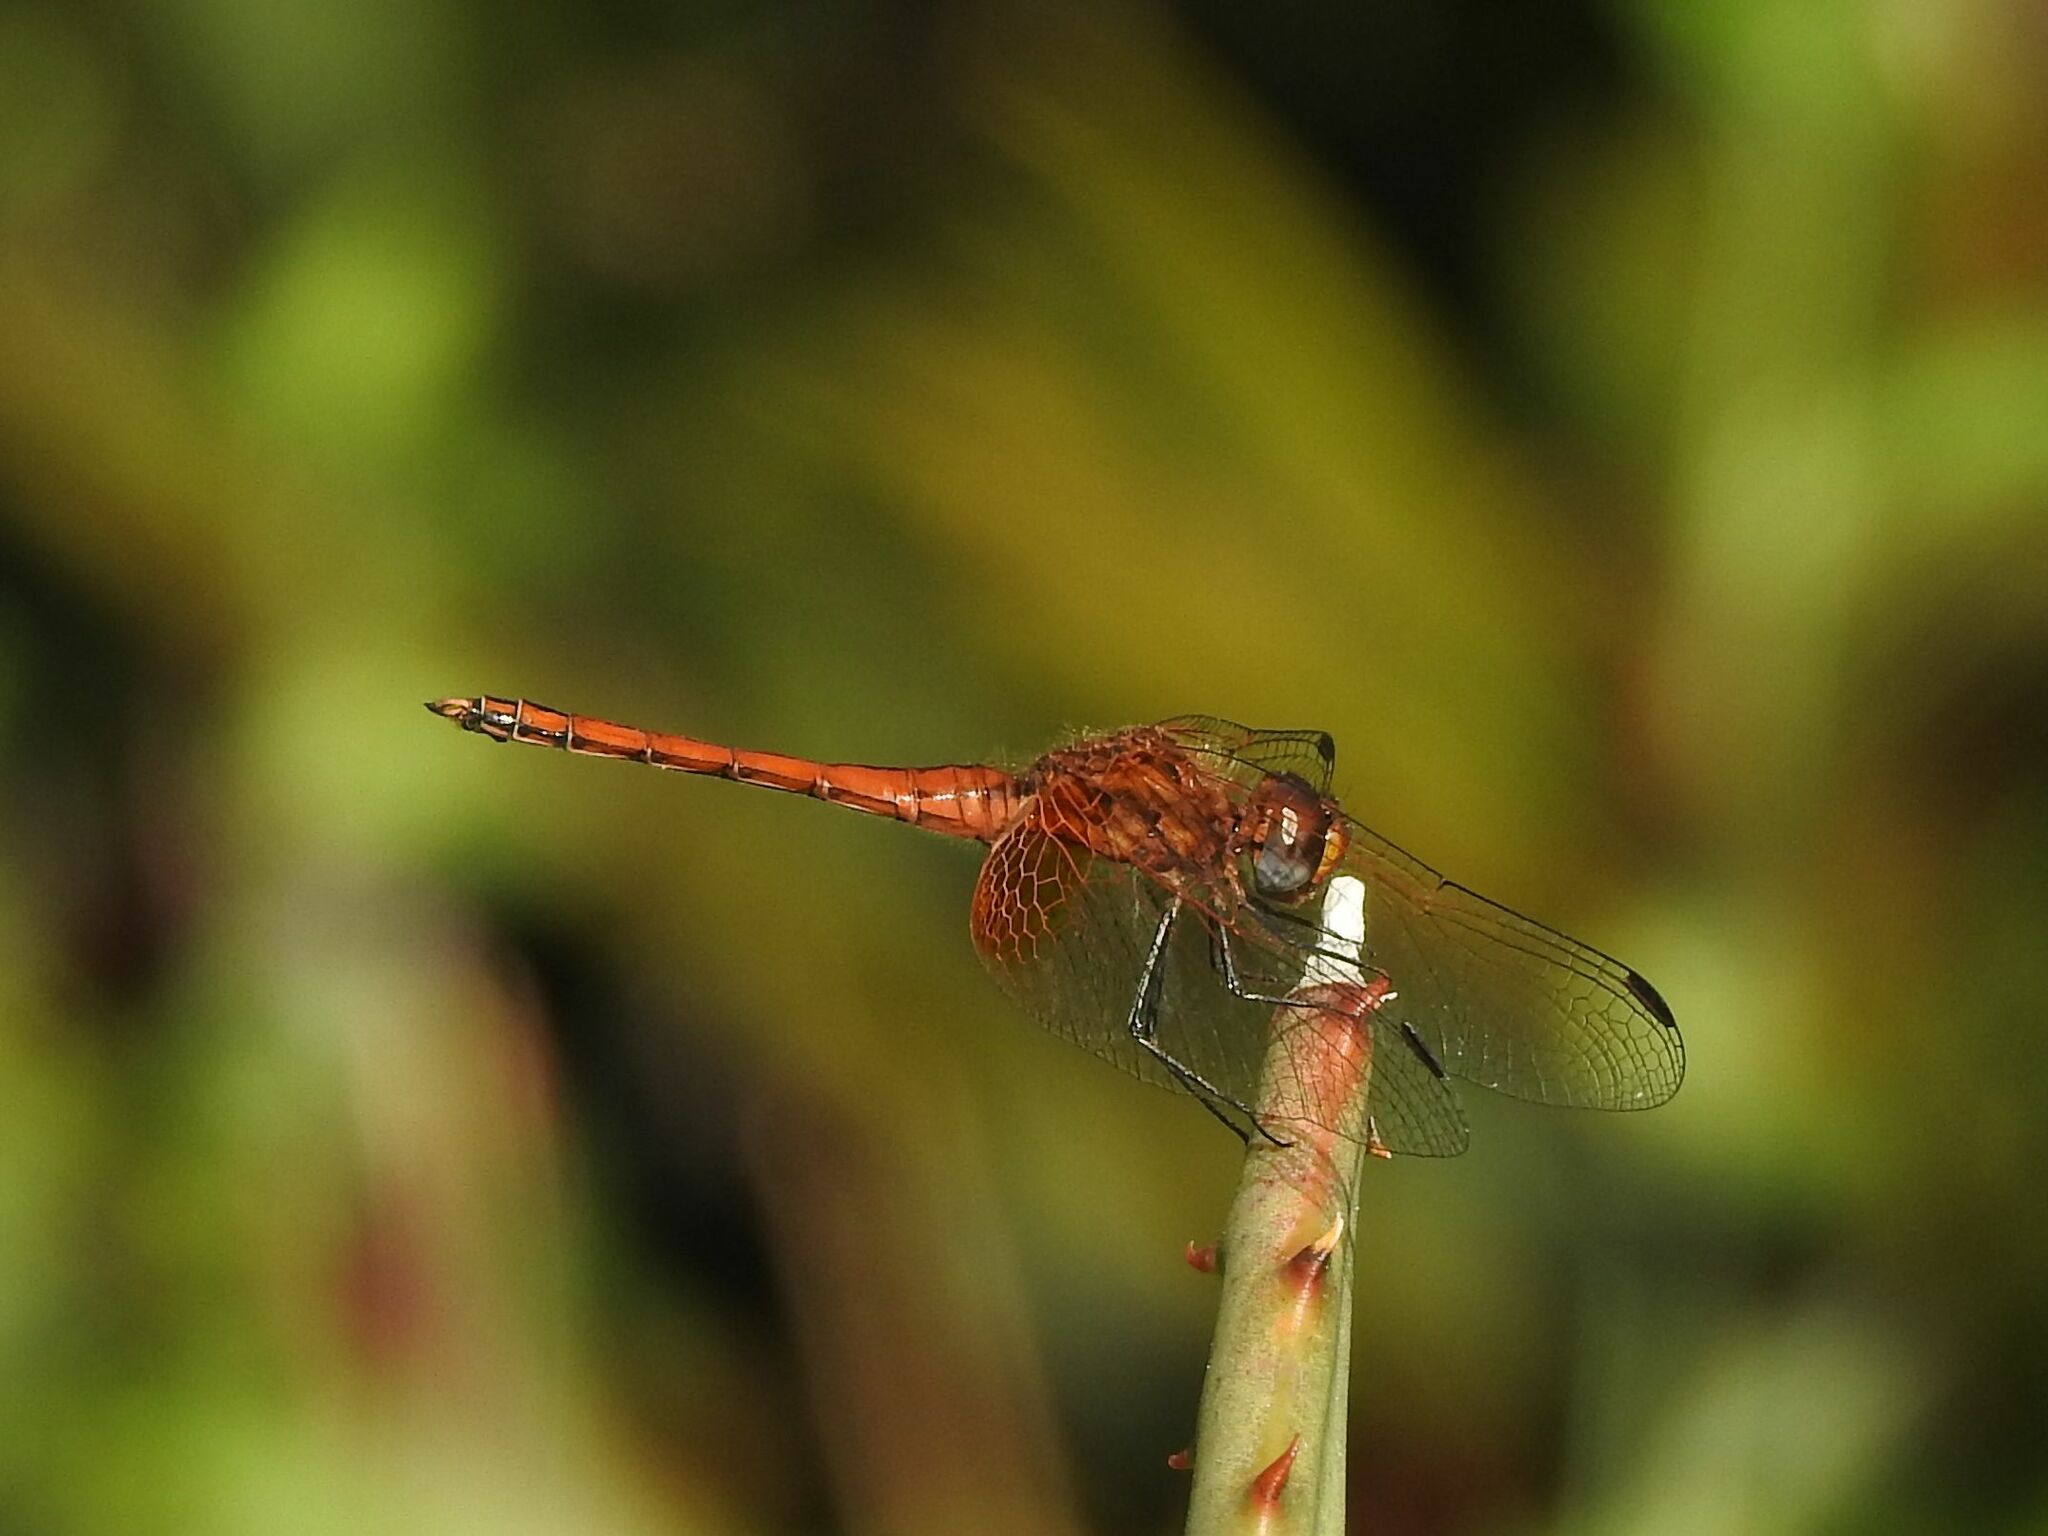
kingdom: Animalia
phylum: Arthropoda
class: Insecta
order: Odonata
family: Libellulidae
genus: Trithemis
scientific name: Trithemis pluvialis
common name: Russet dropwing
